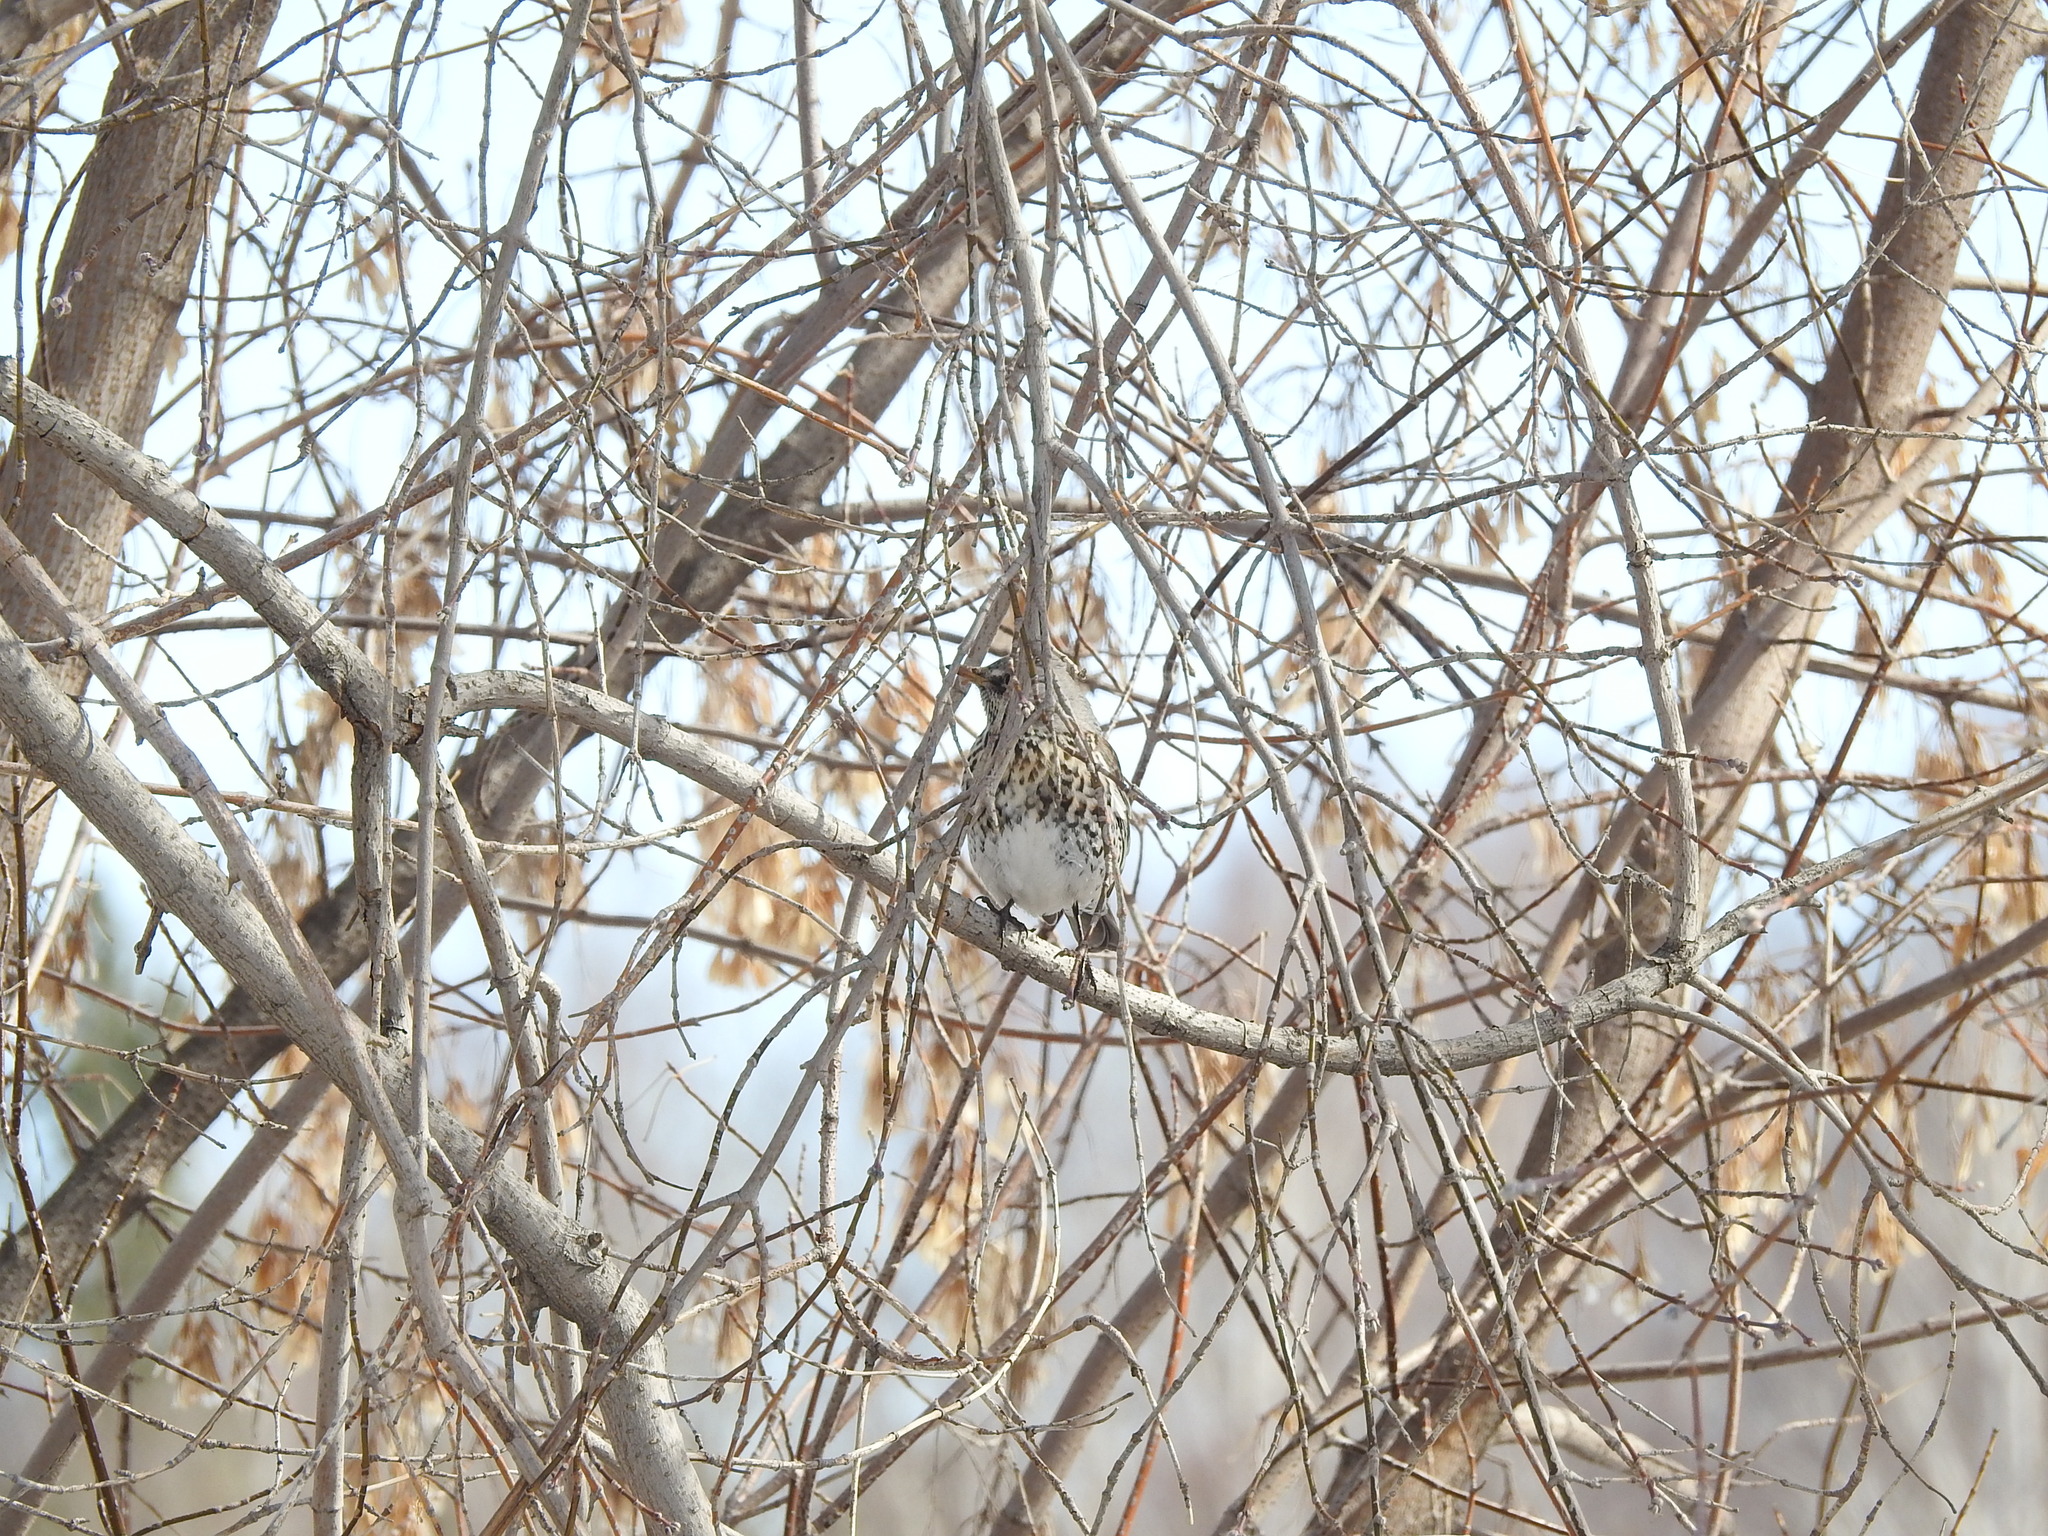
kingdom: Animalia
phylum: Chordata
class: Aves
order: Passeriformes
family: Turdidae
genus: Turdus
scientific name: Turdus pilaris
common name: Fieldfare
